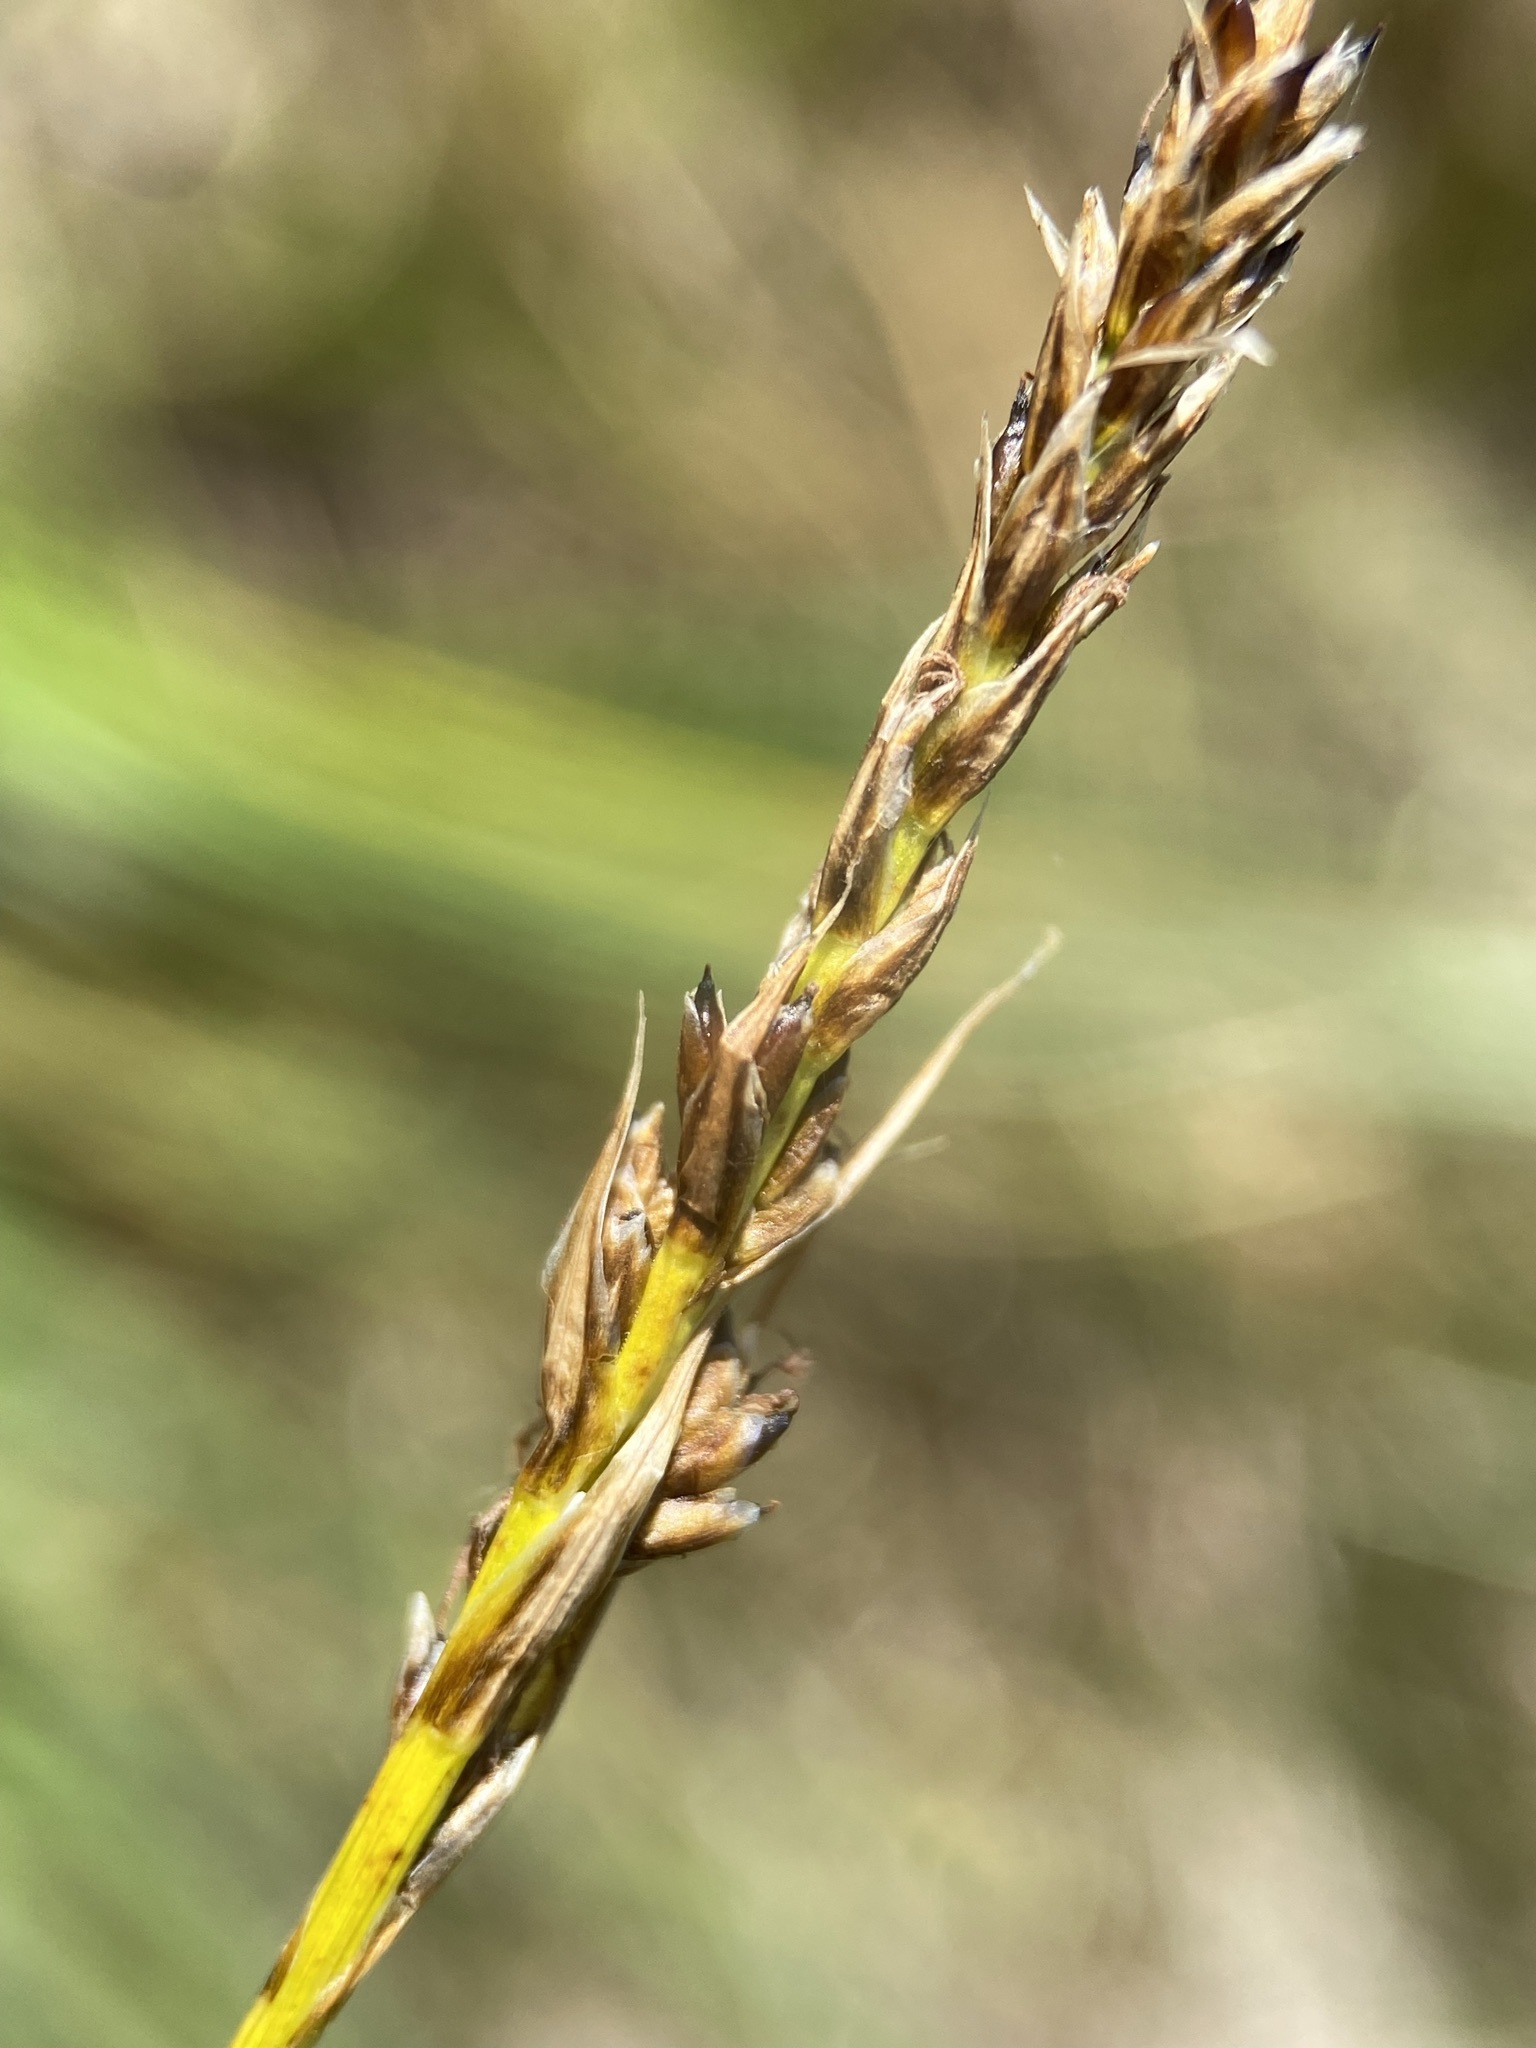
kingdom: Plantae
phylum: Tracheophyta
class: Liliopsida
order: Poales
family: Cyperaceae
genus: Carex
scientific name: Carex simpliciuscula
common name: Simple bog sedge
